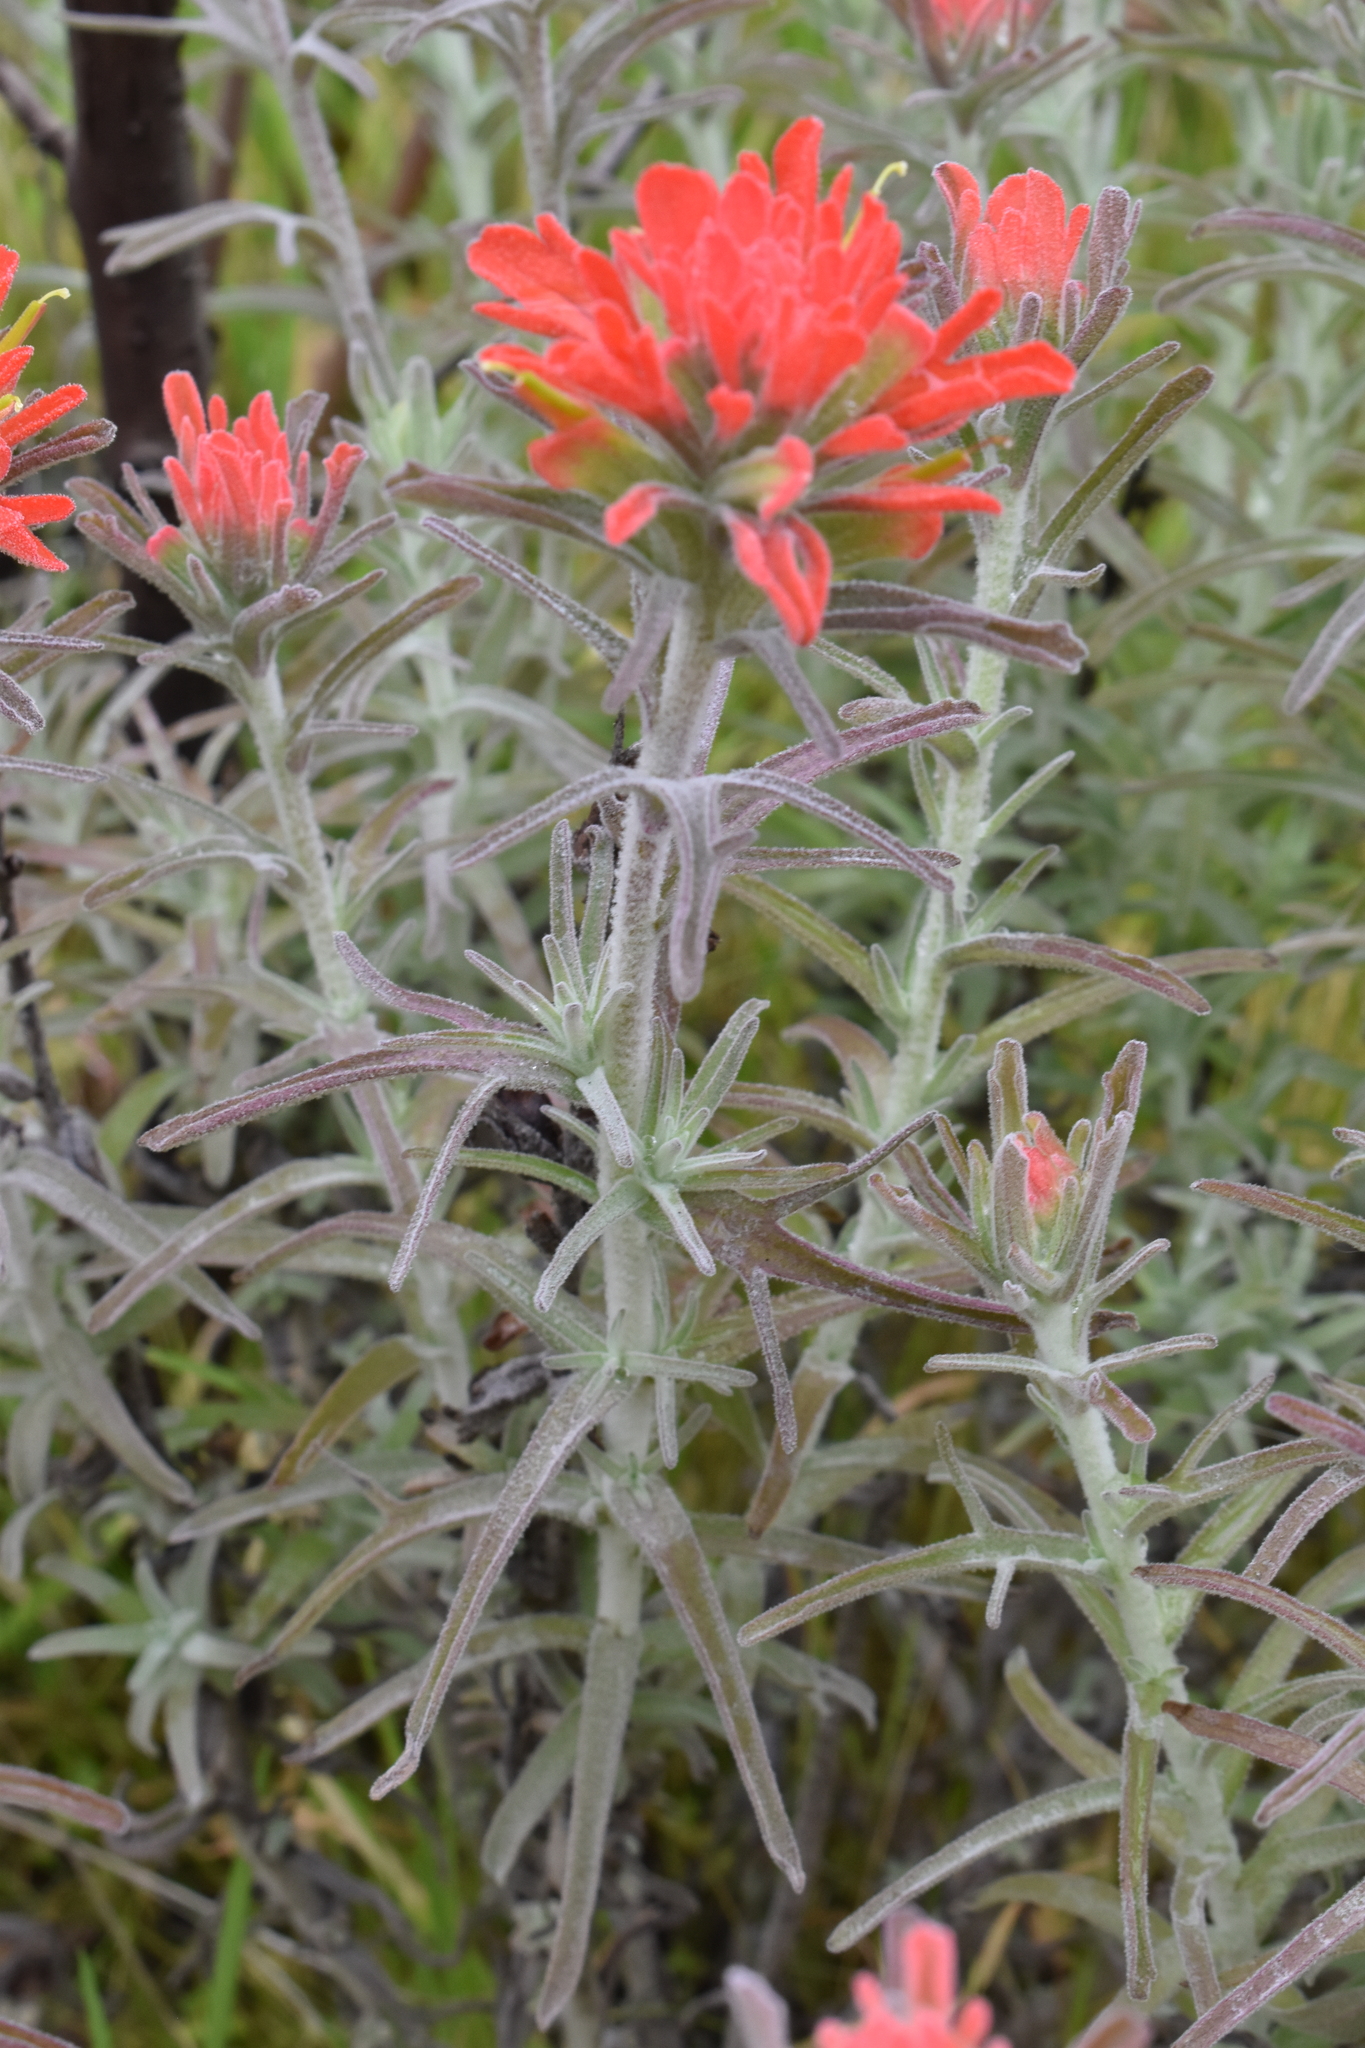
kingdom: Plantae
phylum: Tracheophyta
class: Magnoliopsida
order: Lamiales
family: Orobanchaceae
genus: Castilleja
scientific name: Castilleja foliolosa
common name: Woolly indian paintbrush
